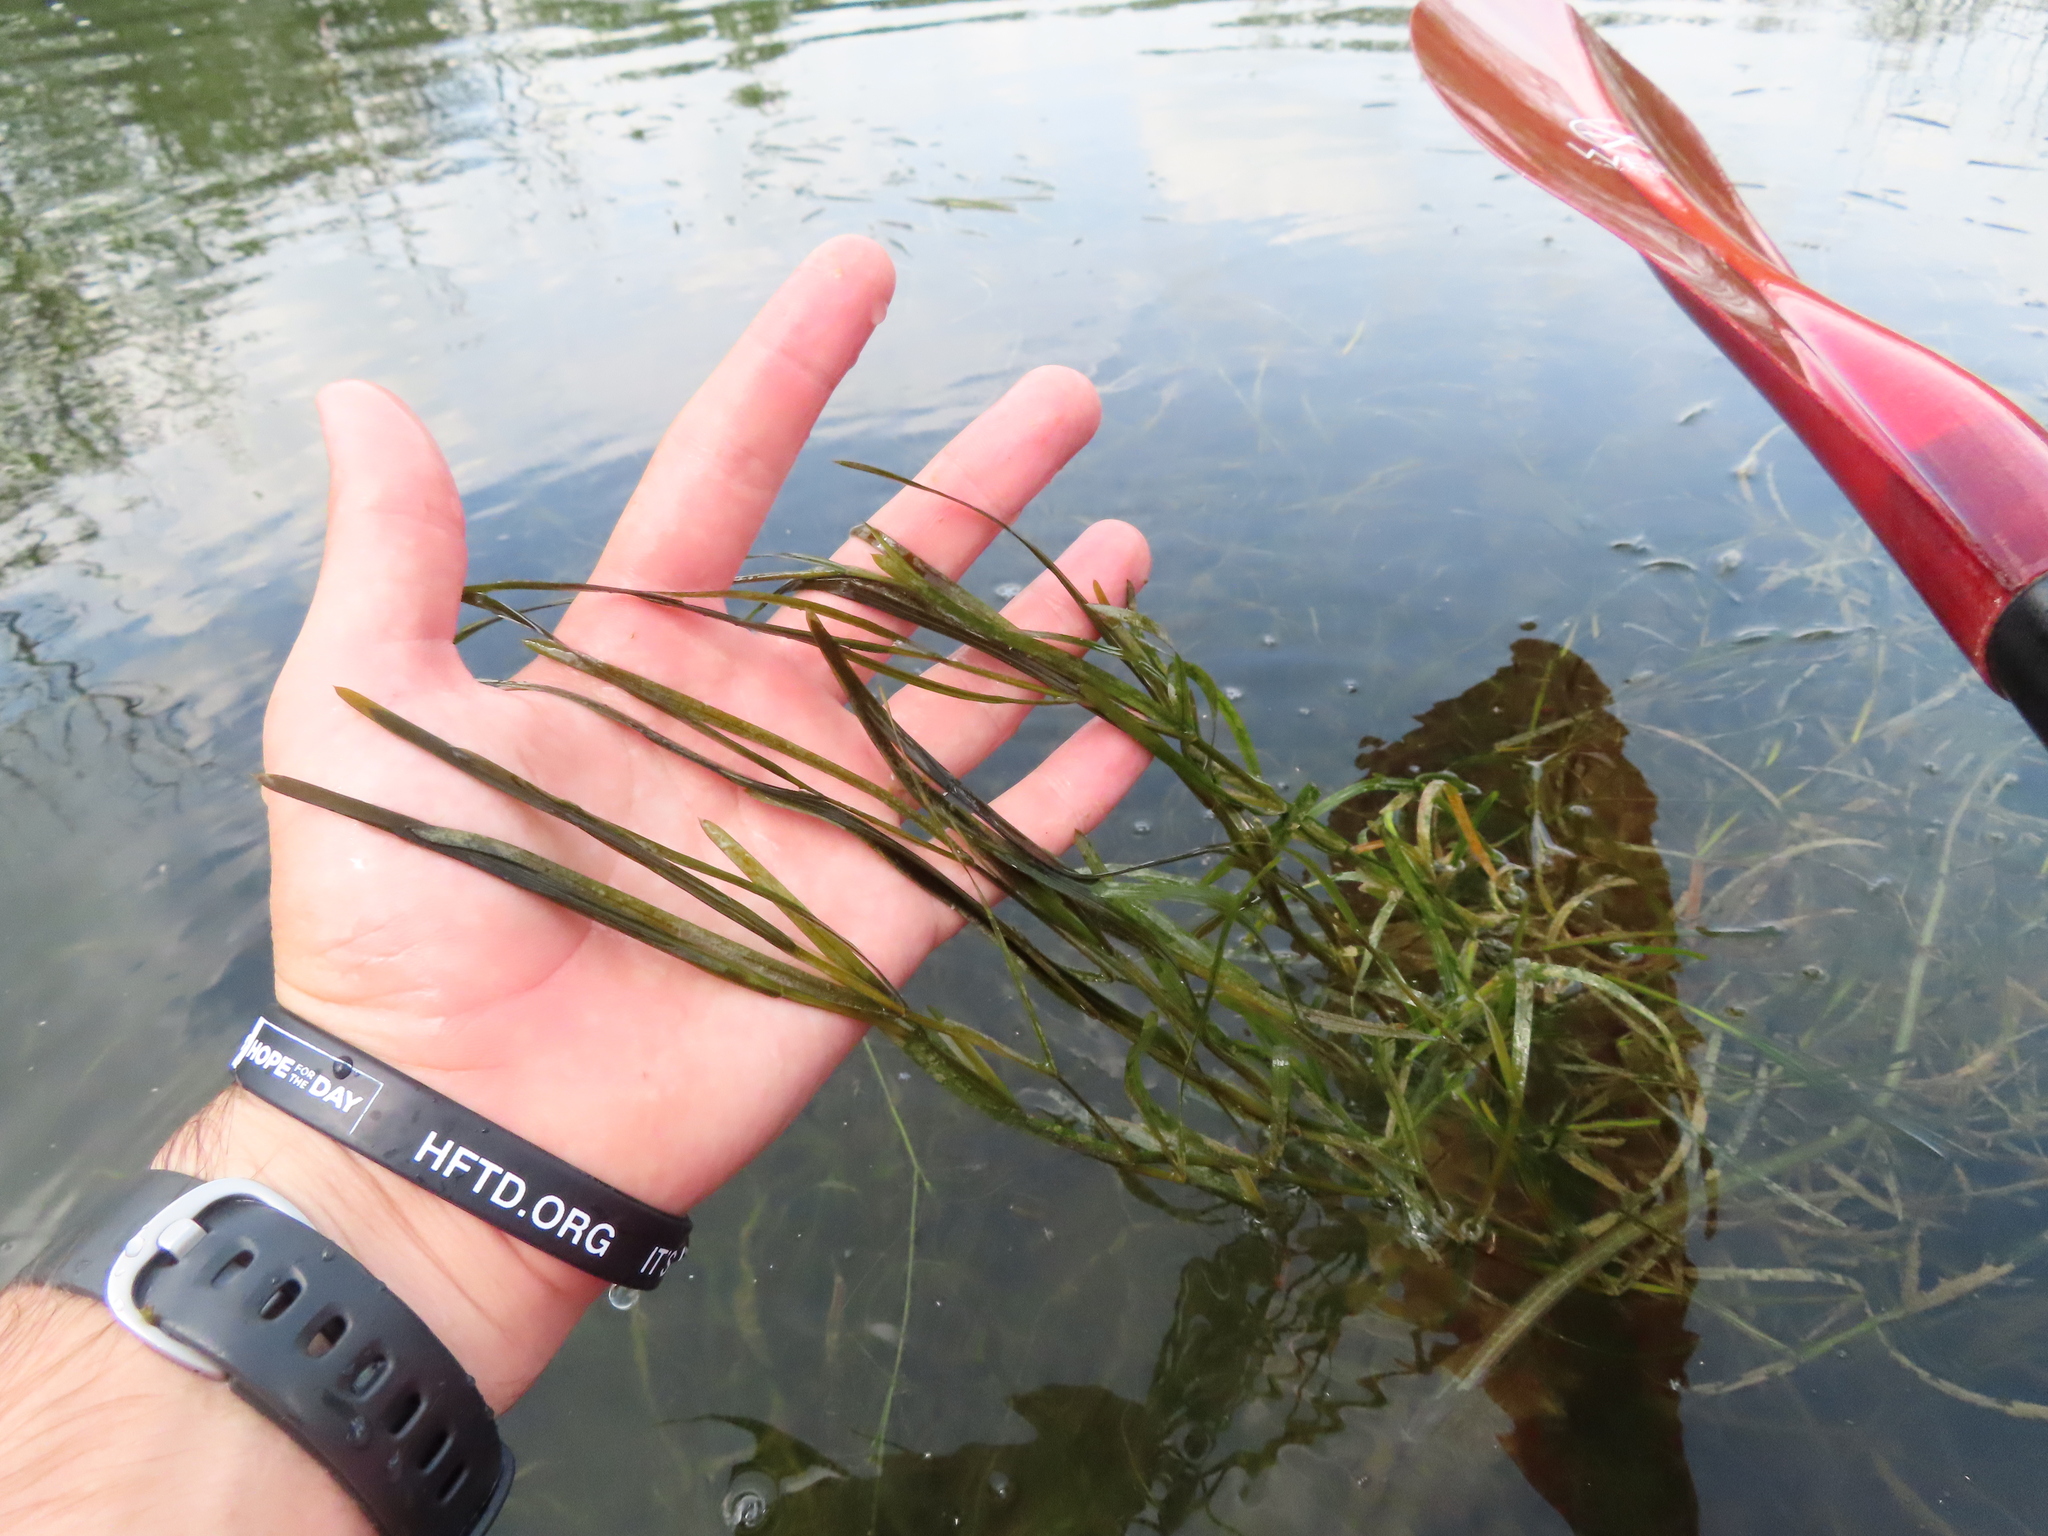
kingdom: Plantae
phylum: Tracheophyta
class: Liliopsida
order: Alismatales
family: Potamogetonaceae
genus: Potamogeton
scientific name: Potamogeton zosteriformis
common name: Eelgrass pondweed
